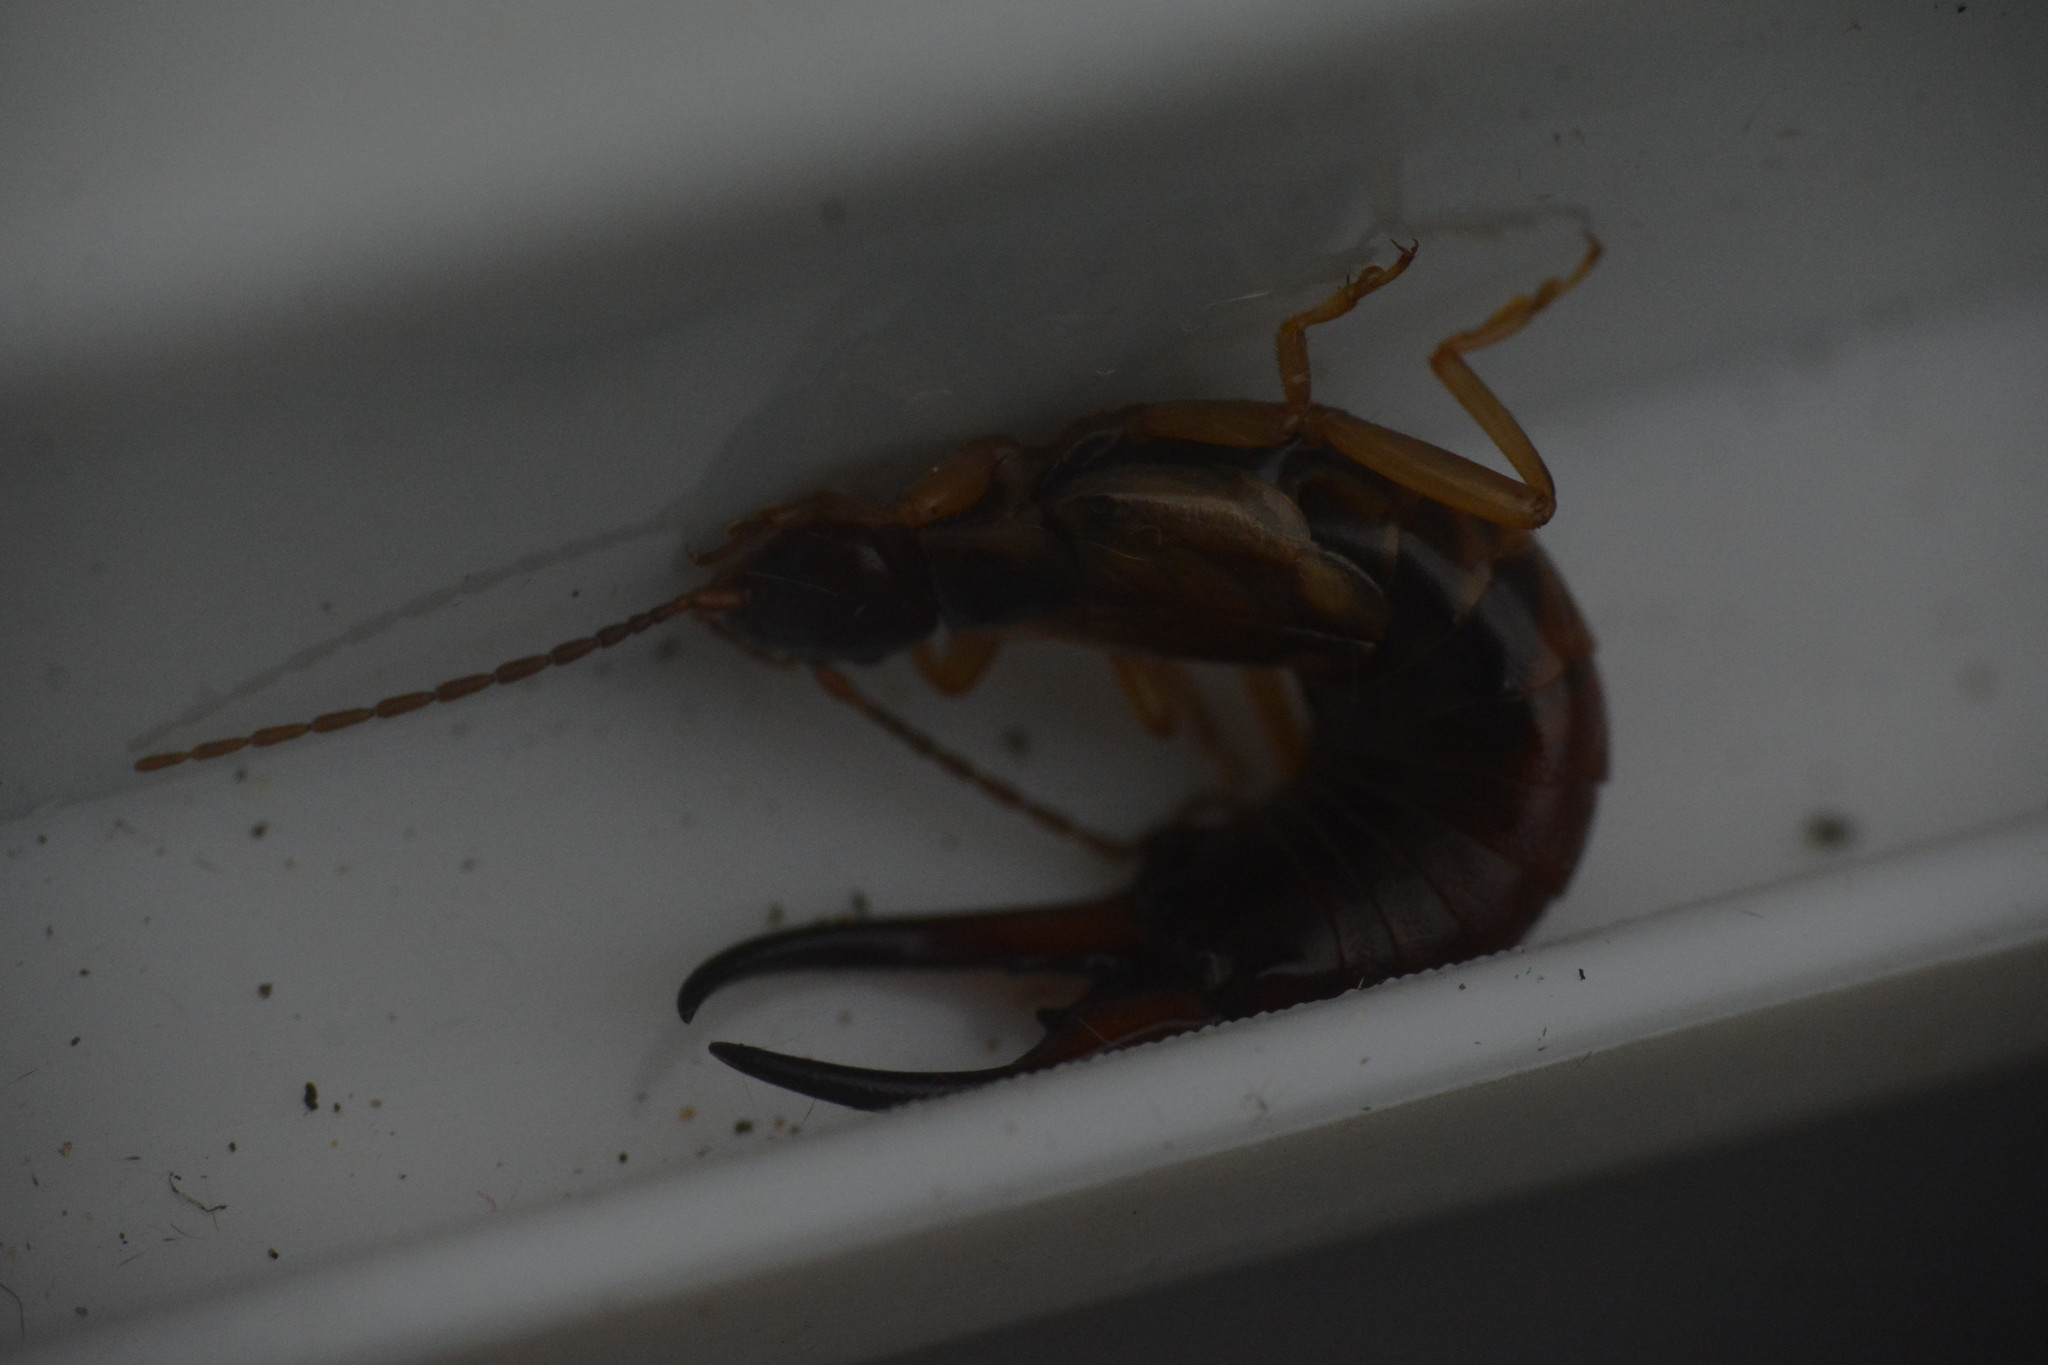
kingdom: Animalia
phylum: Arthropoda
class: Insecta
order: Dermaptera
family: Forficulidae
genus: Forficula
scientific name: Forficula
